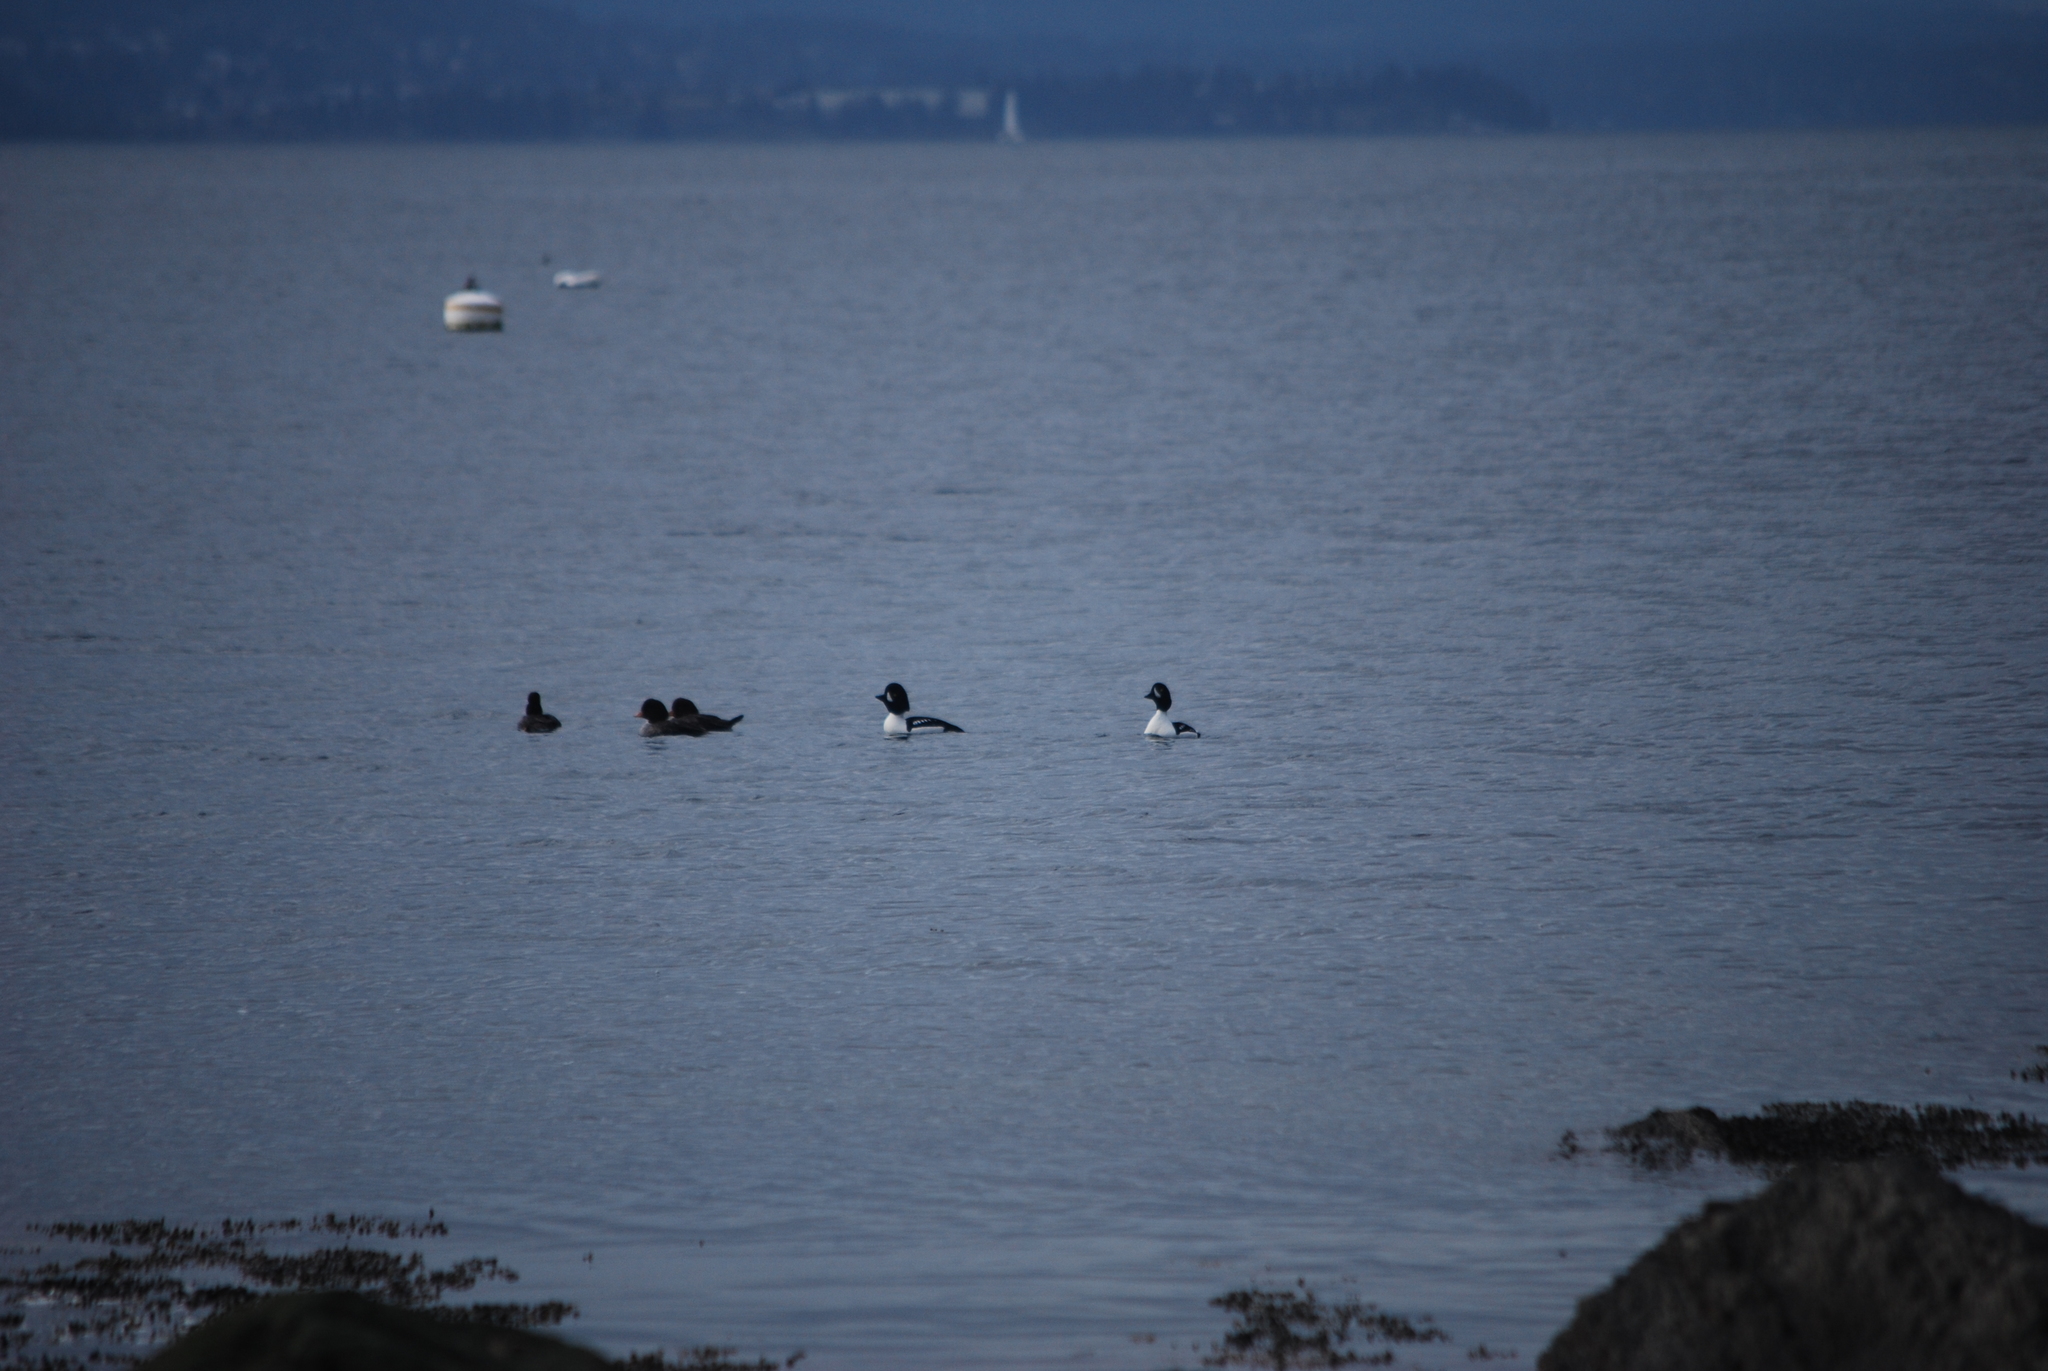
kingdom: Animalia
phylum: Chordata
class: Aves
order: Anseriformes
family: Anatidae
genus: Bucephala
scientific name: Bucephala clangula
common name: Common goldeneye
